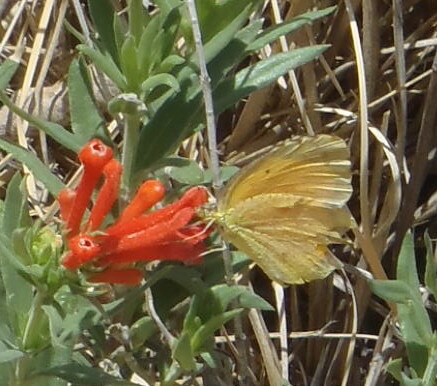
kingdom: Animalia
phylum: Arthropoda
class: Insecta
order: Lepidoptera
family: Pieridae
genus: Abaeis
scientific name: Abaeis nicippe
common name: Sleepy orange
